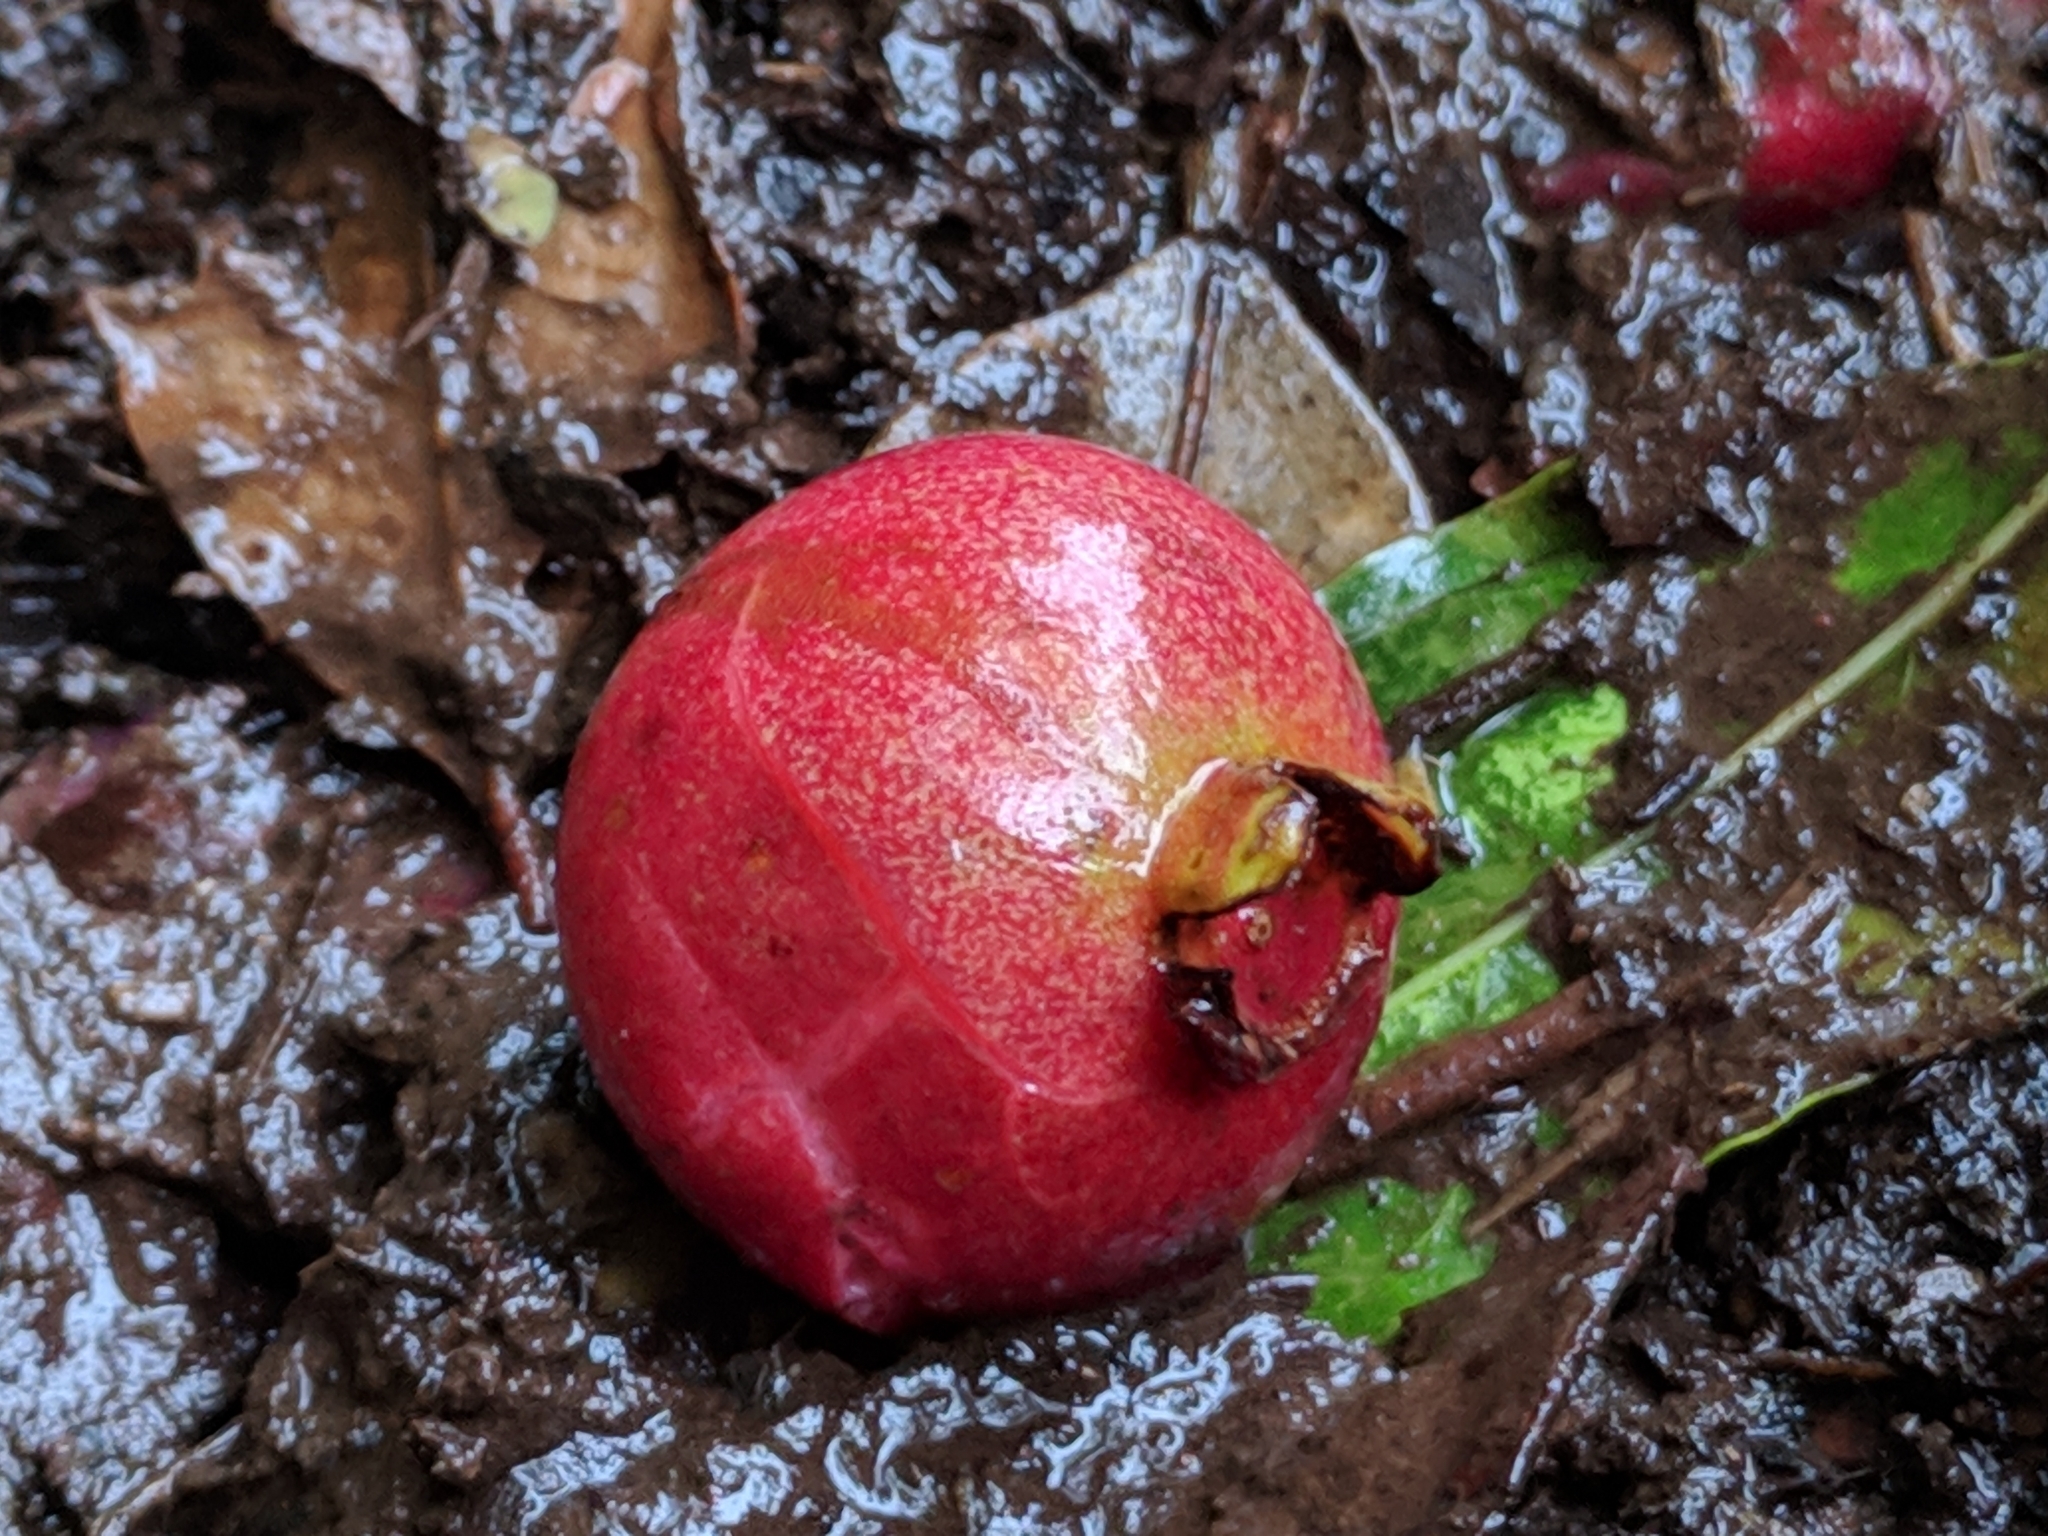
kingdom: Plantae
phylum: Tracheophyta
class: Magnoliopsida
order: Myrtales
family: Myrtaceae
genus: Psidium
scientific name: Psidium cattleianum
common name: Strawberry guava
